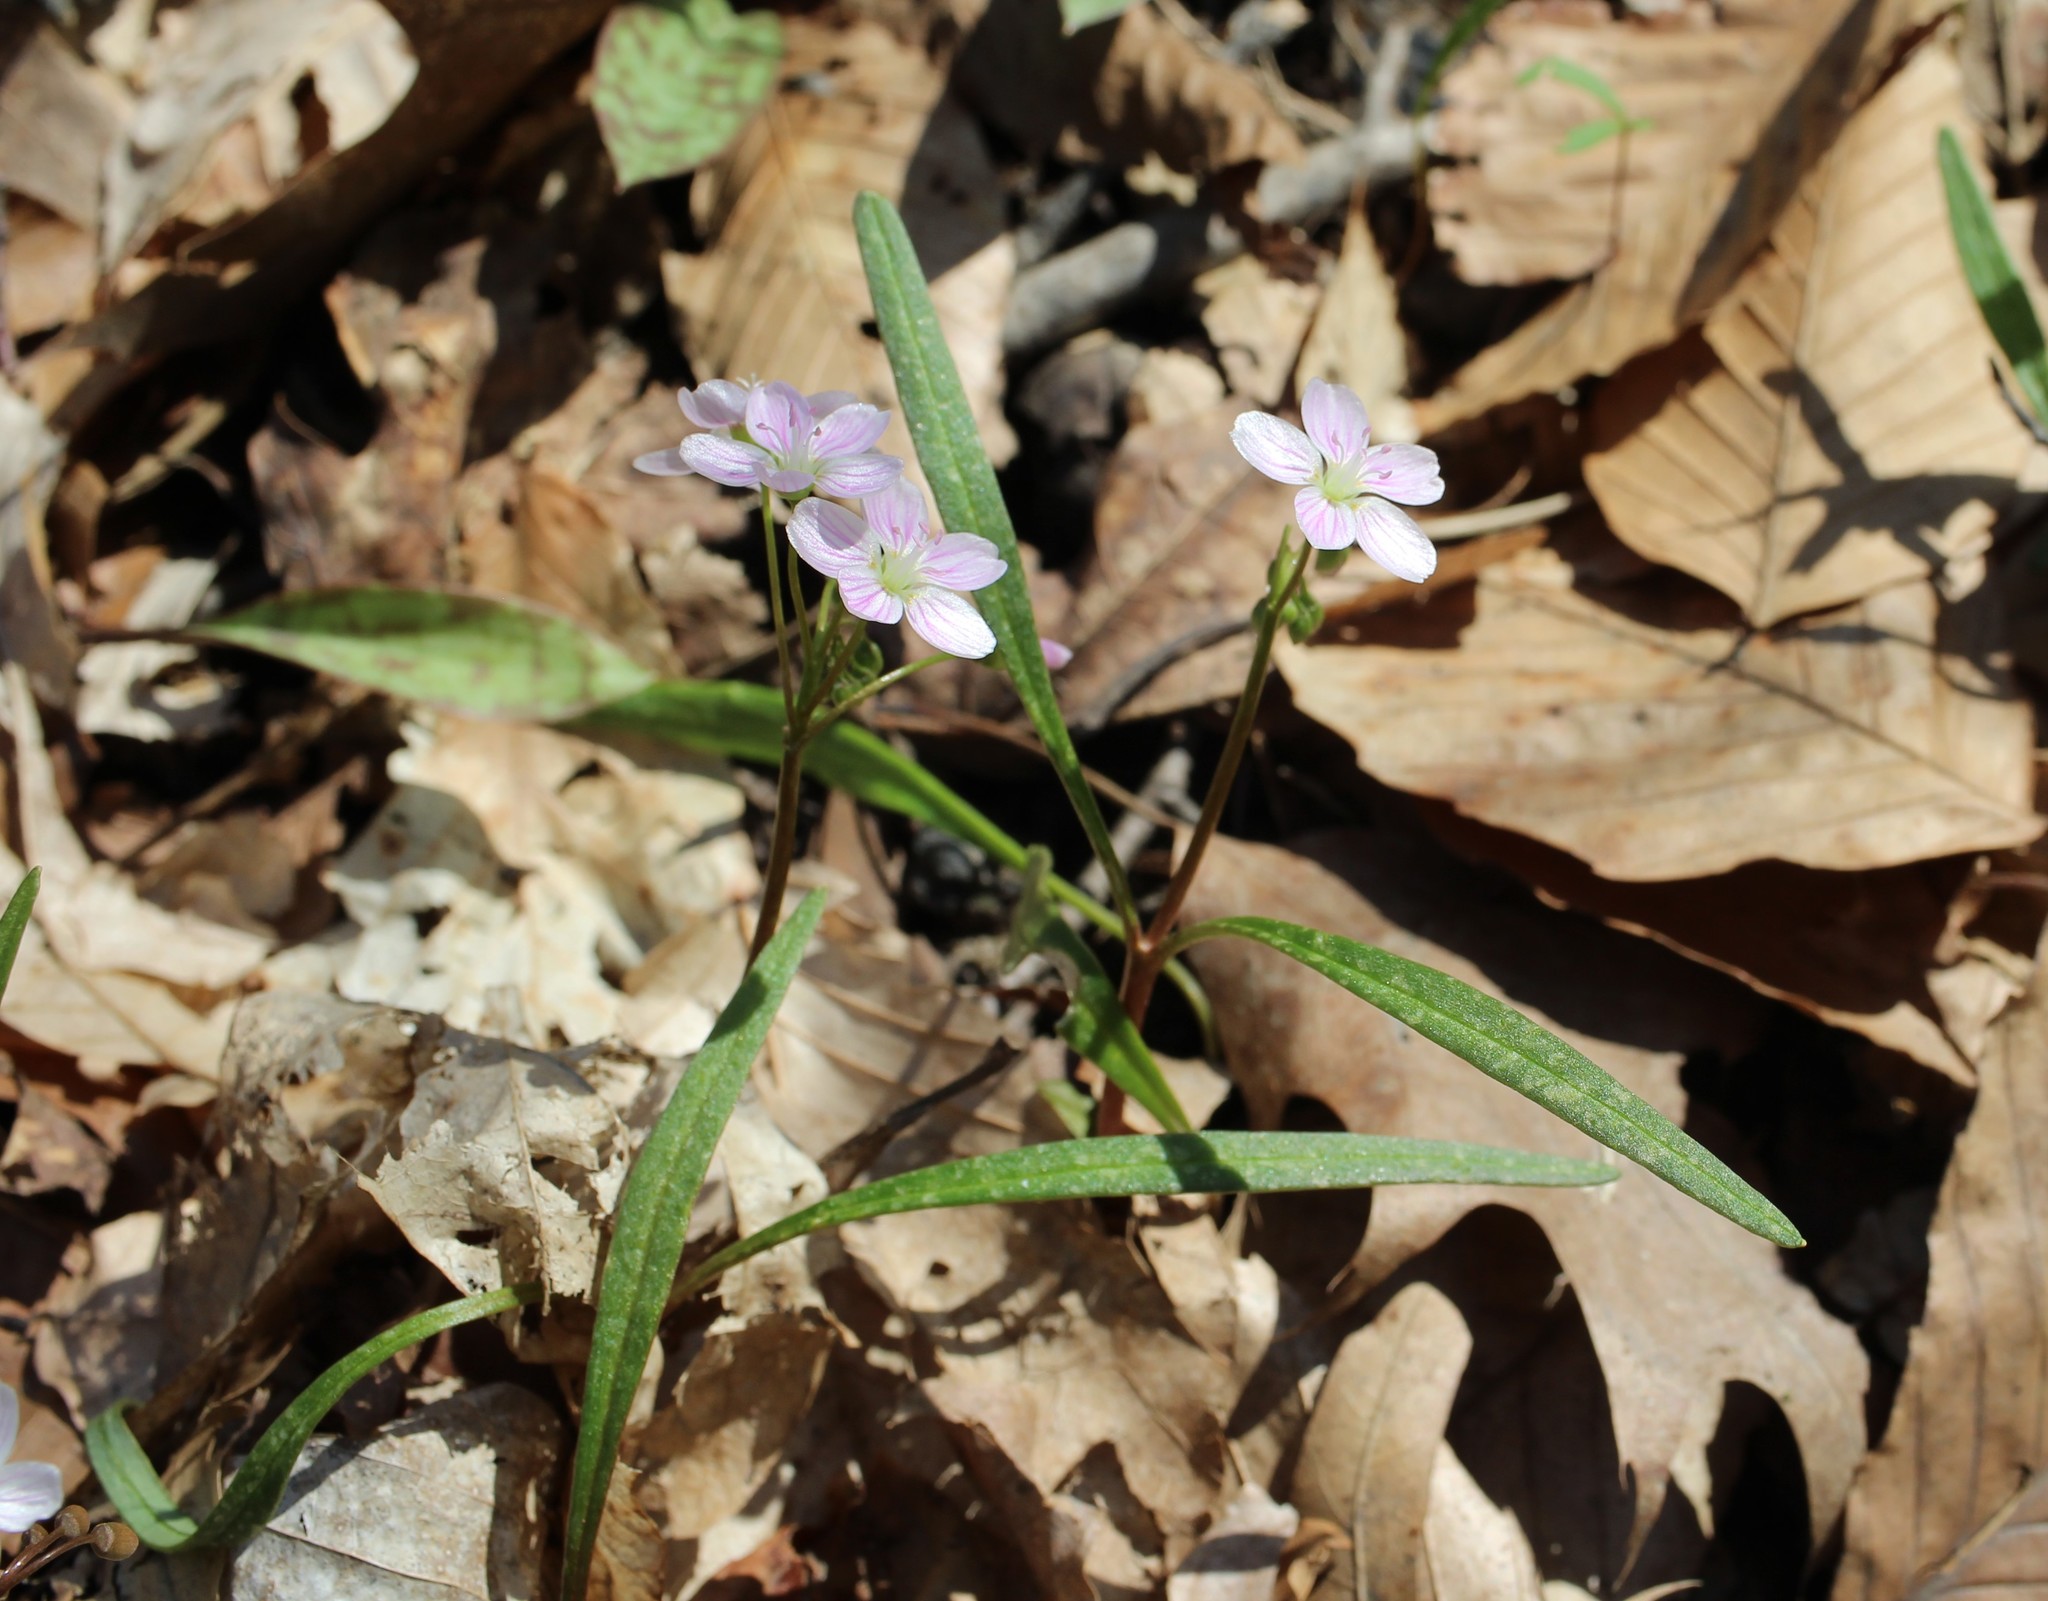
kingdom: Plantae
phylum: Tracheophyta
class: Magnoliopsida
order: Caryophyllales
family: Montiaceae
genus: Claytonia
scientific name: Claytonia virginica
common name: Virginia springbeauty
